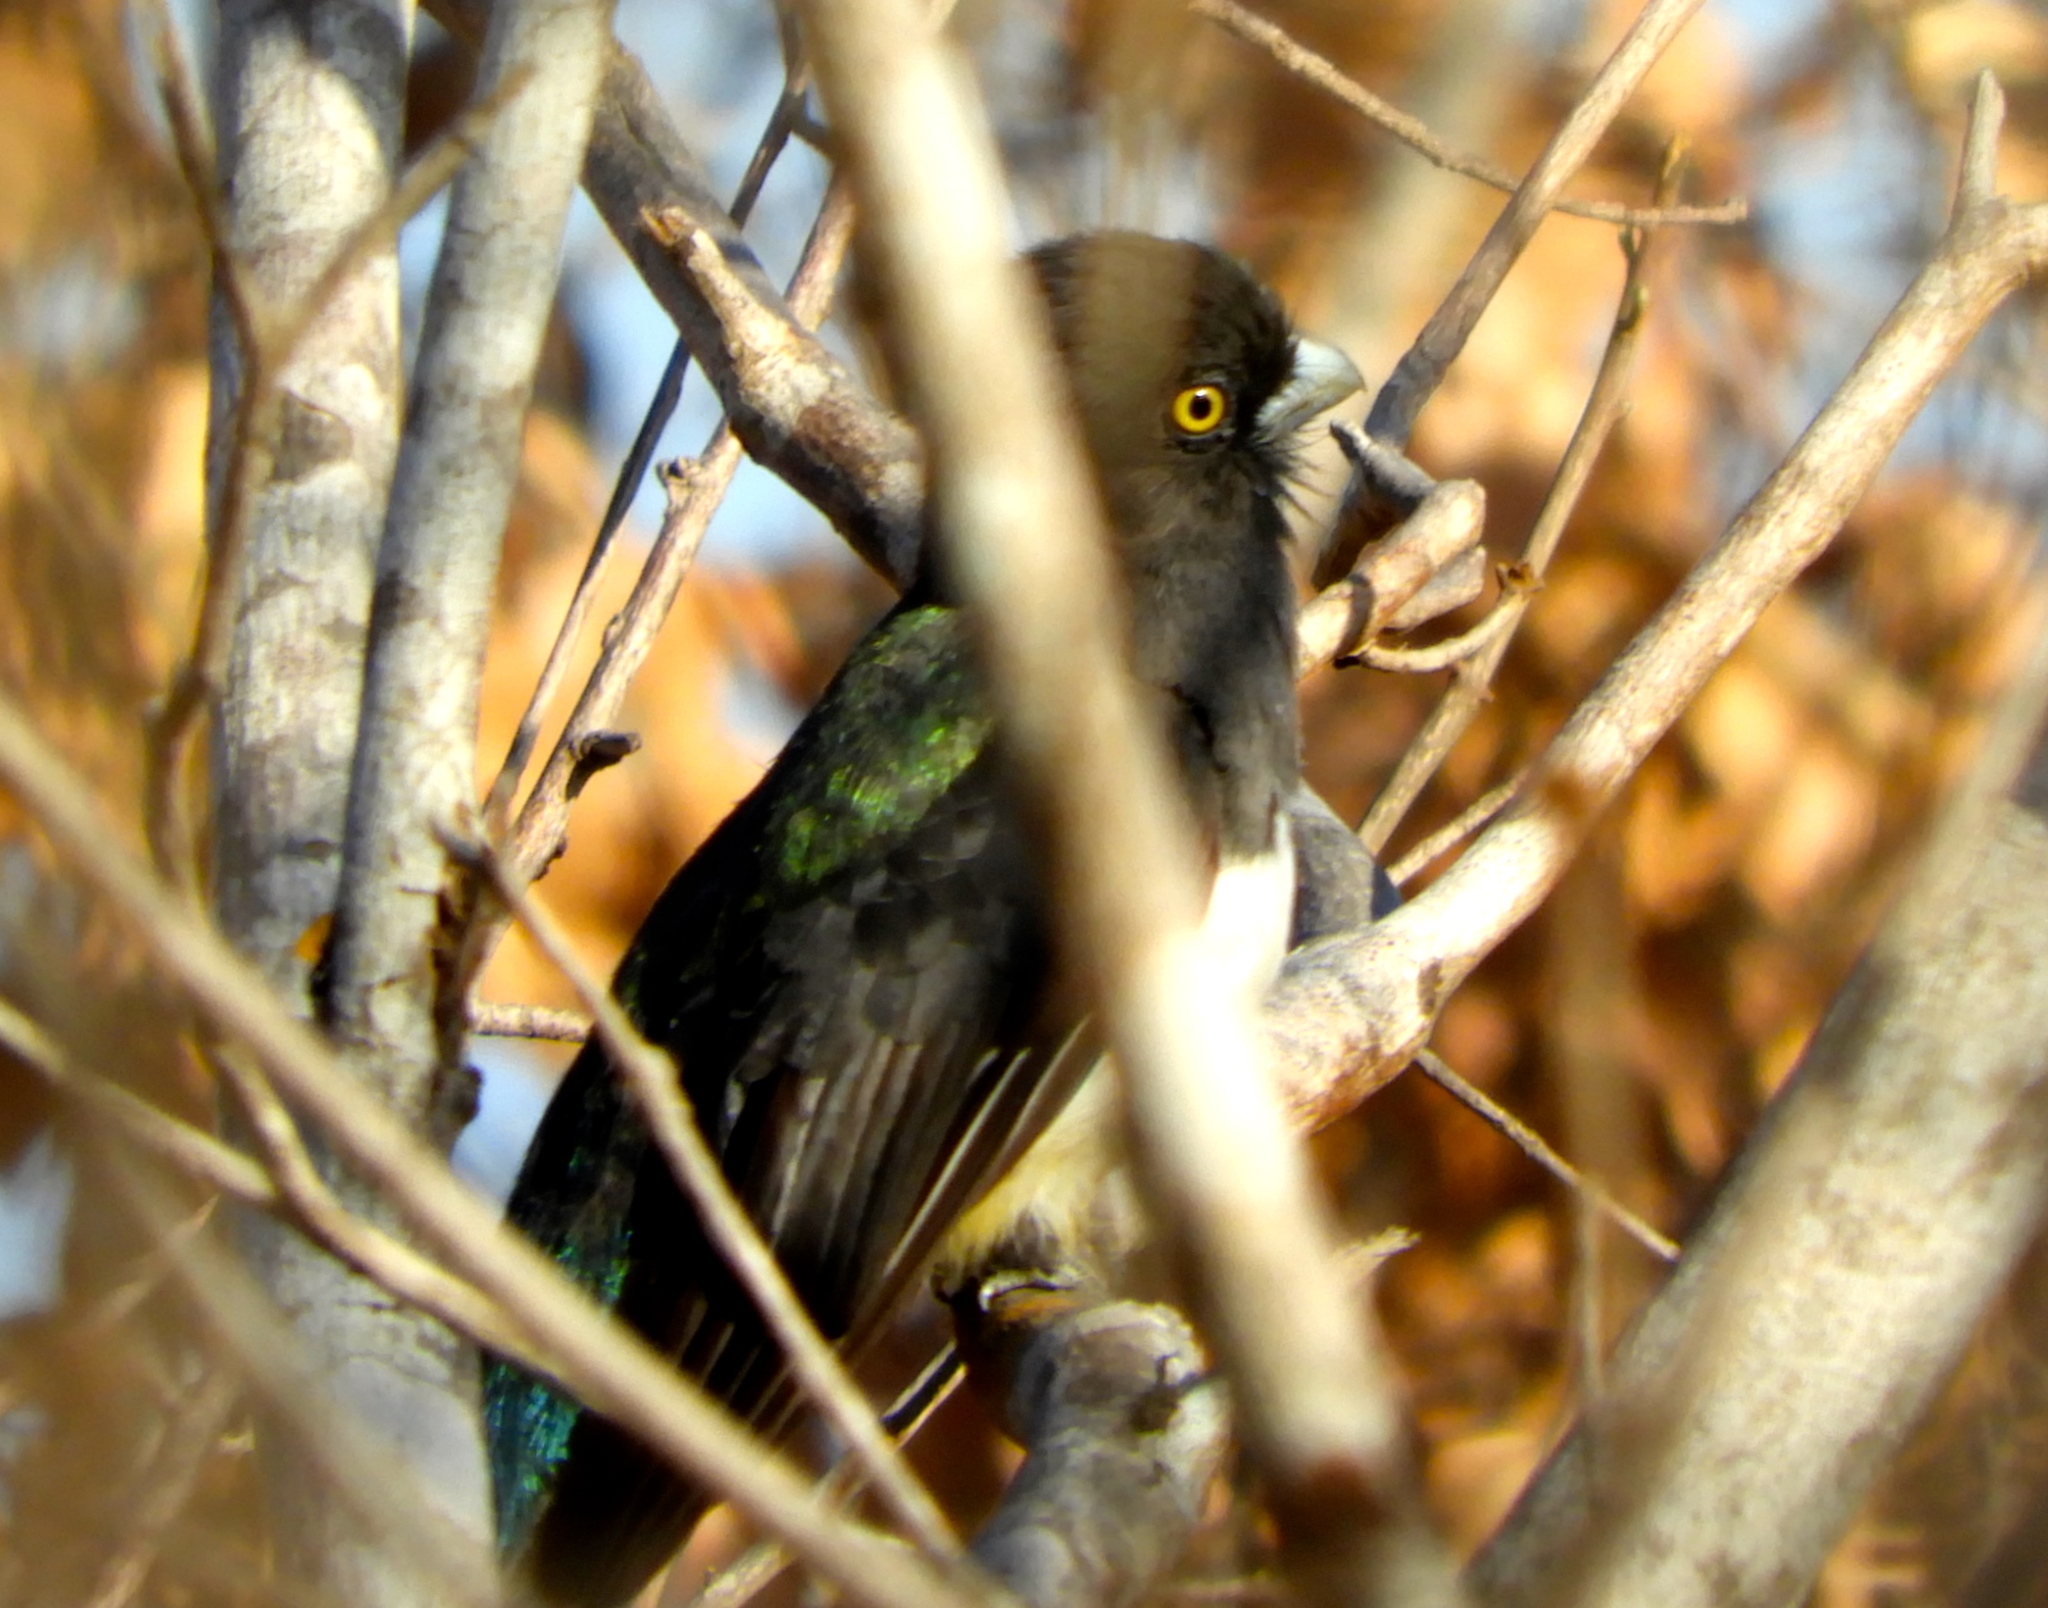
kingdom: Animalia
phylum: Chordata
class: Aves
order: Trogoniformes
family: Trogonidae
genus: Trogon
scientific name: Trogon citreolus
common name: Citreoline trogon
